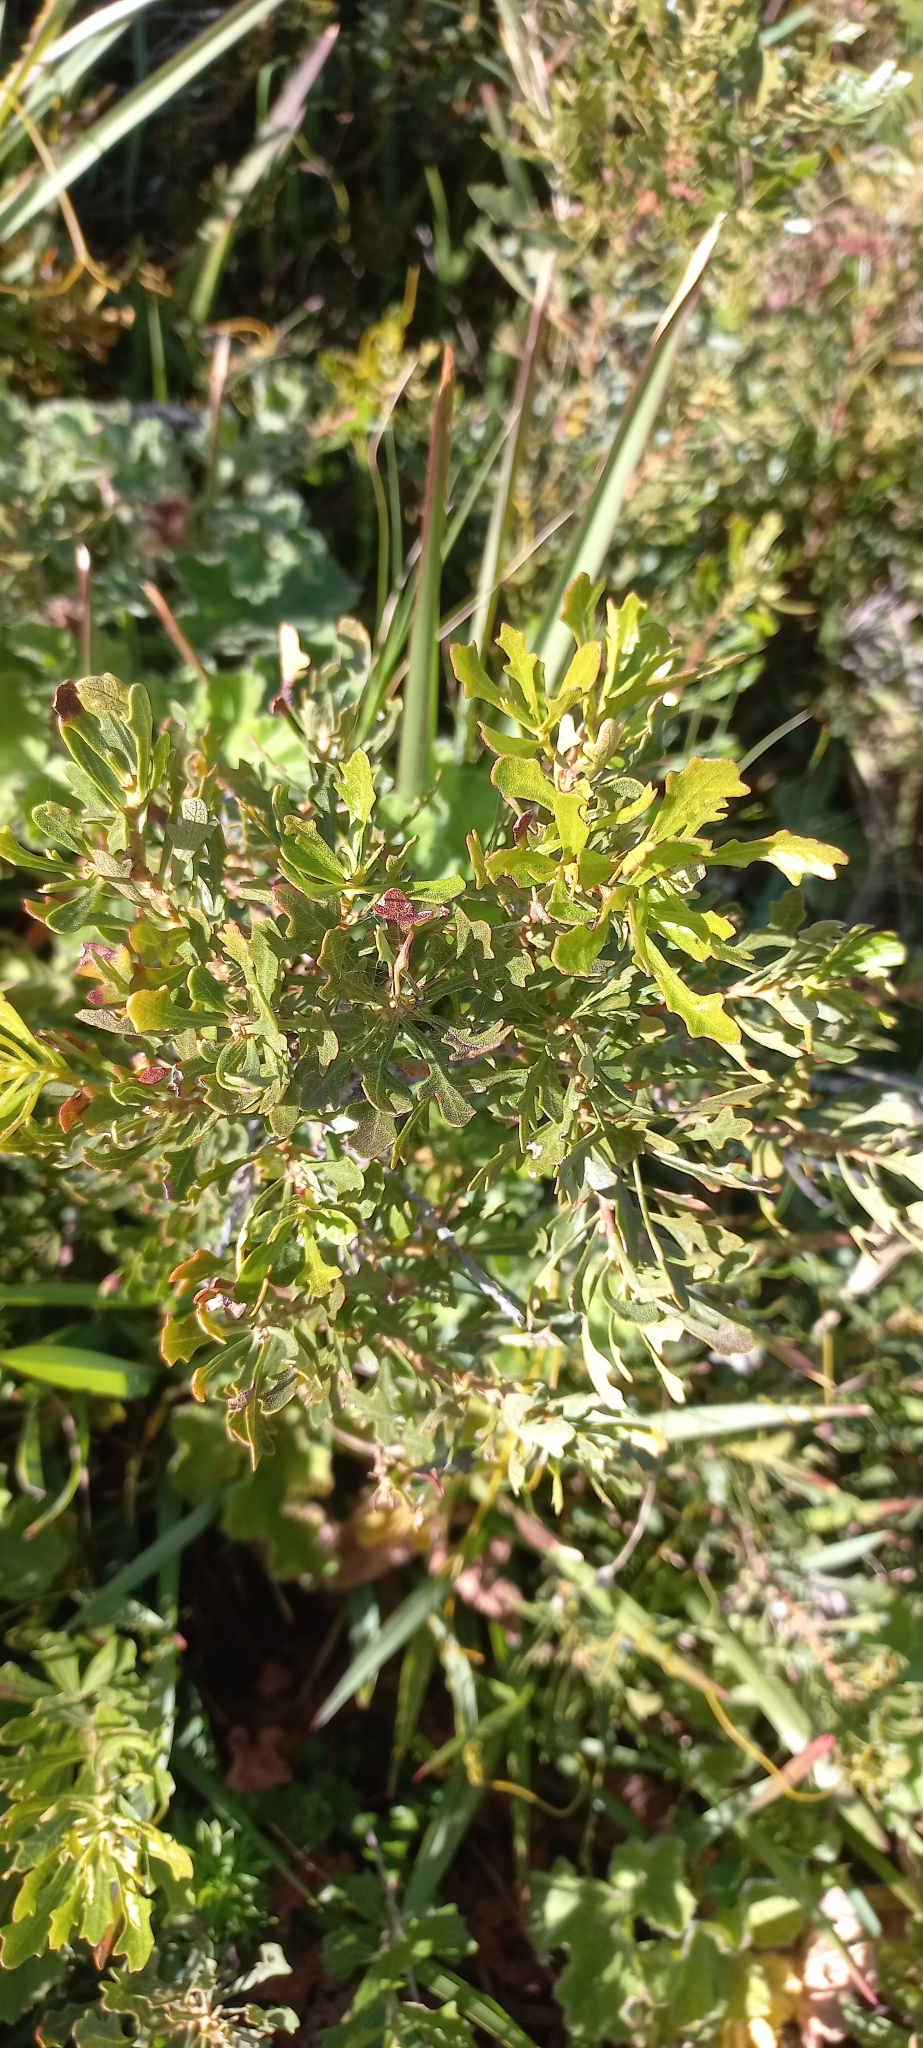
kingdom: Plantae
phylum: Tracheophyta
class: Magnoliopsida
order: Fagales
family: Myricaceae
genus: Morella
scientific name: Morella quercifolia
